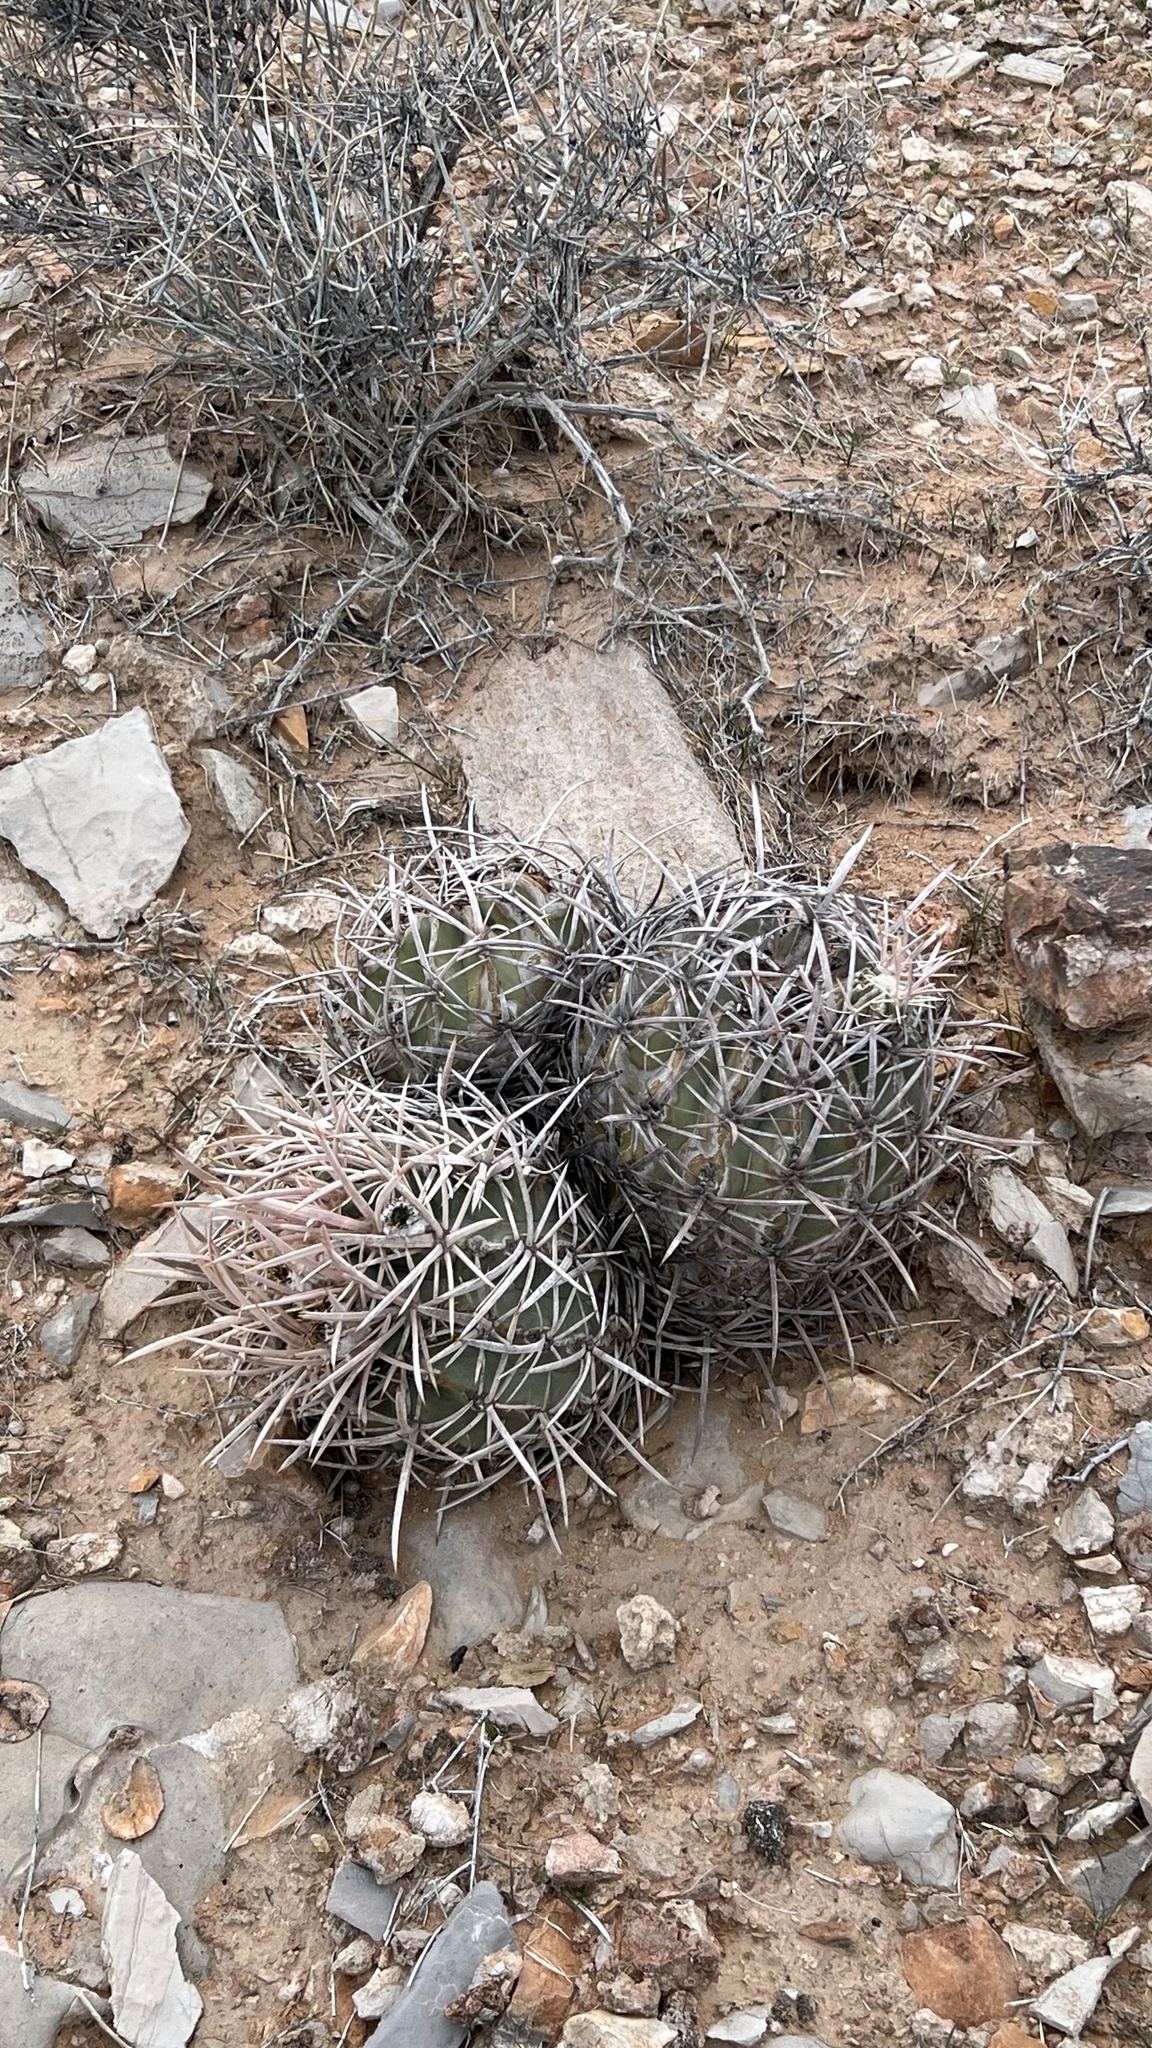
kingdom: Plantae
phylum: Tracheophyta
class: Magnoliopsida
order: Caryophyllales
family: Cactaceae
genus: Echinocactus
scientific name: Echinocactus polycephalus
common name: Cottontop cactus
